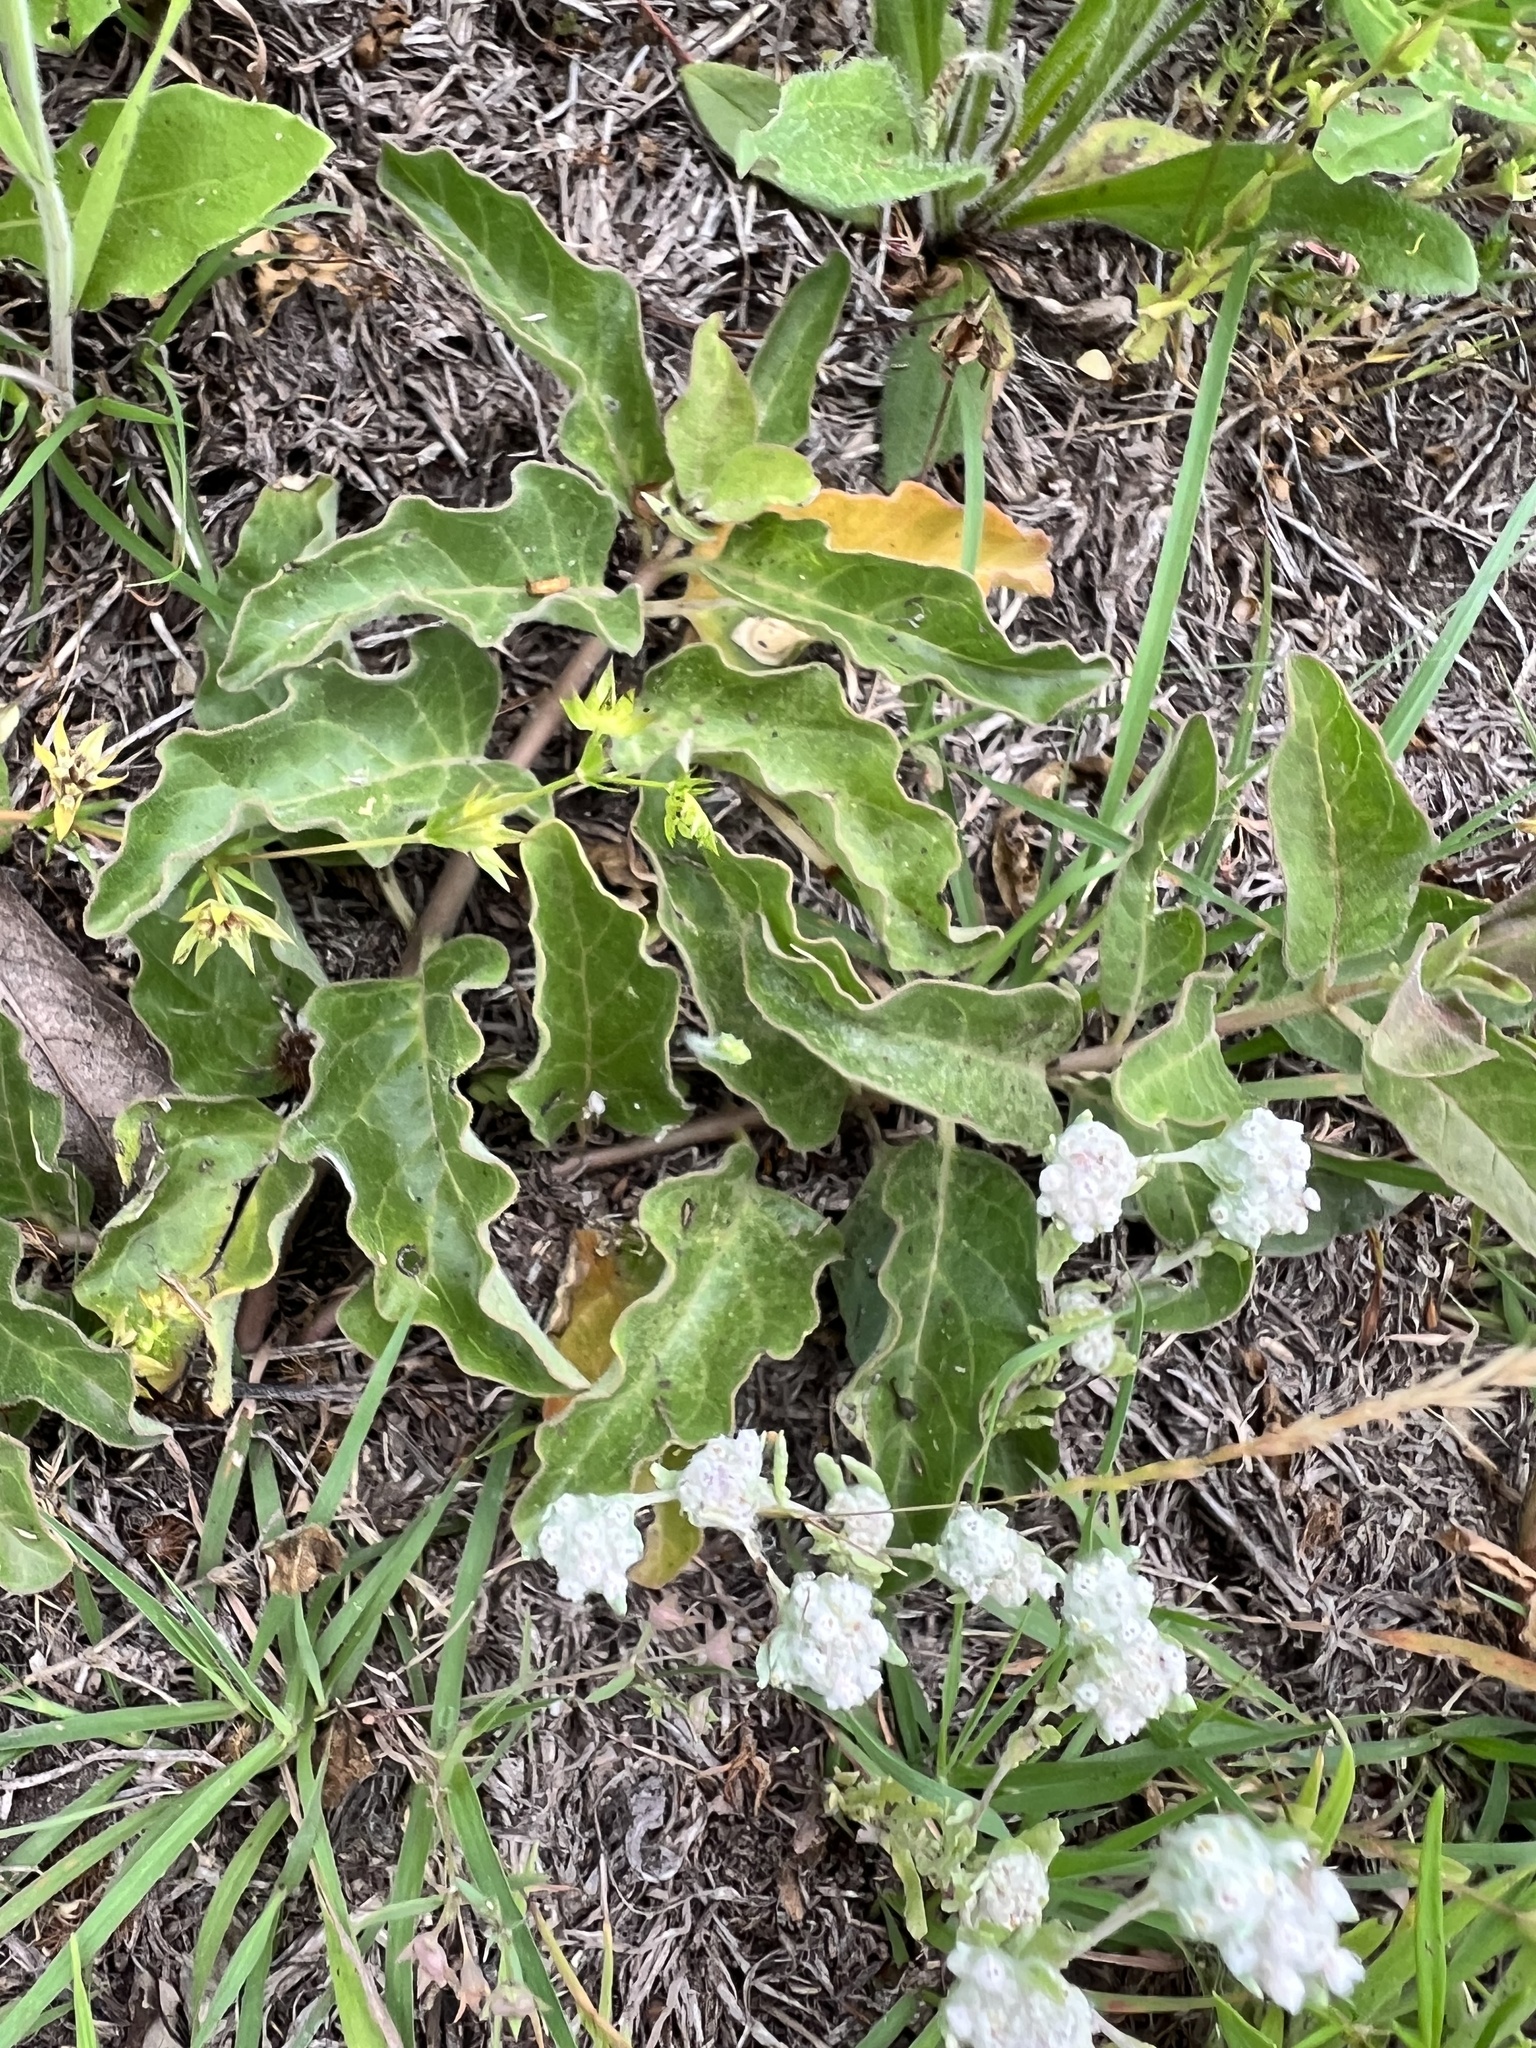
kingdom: Plantae
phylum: Tracheophyta
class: Magnoliopsida
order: Gentianales
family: Apocynaceae
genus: Asclepias
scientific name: Asclepias oenotheroides
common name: Zizotes milkweed
